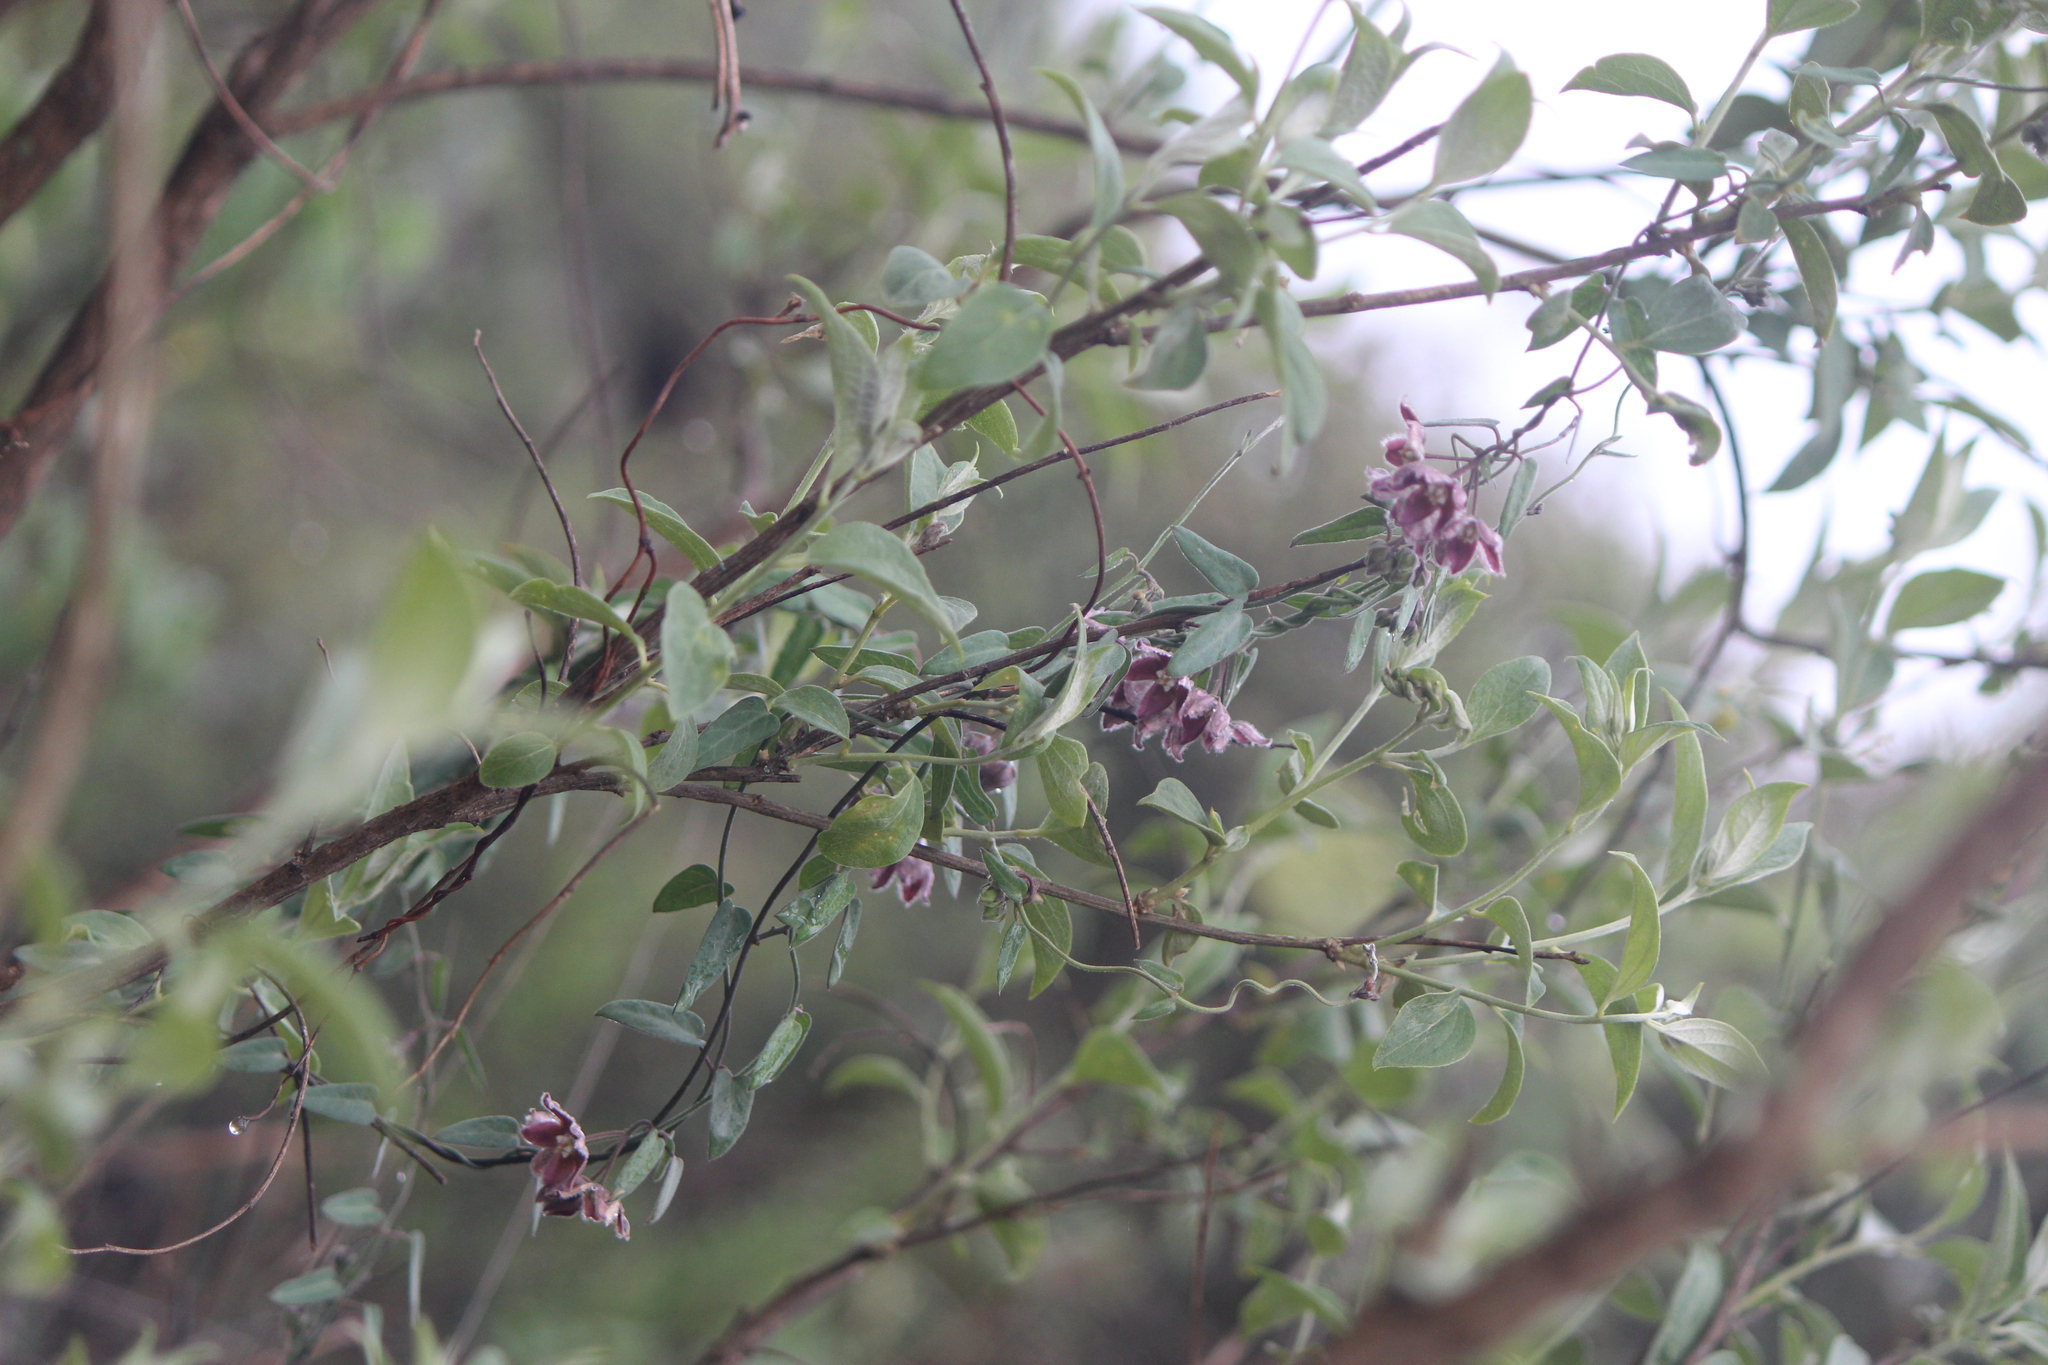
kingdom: Plantae
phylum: Tracheophyta
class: Magnoliopsida
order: Gentianales
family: Apocynaceae
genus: Funastrum
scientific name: Funastrum elegans
